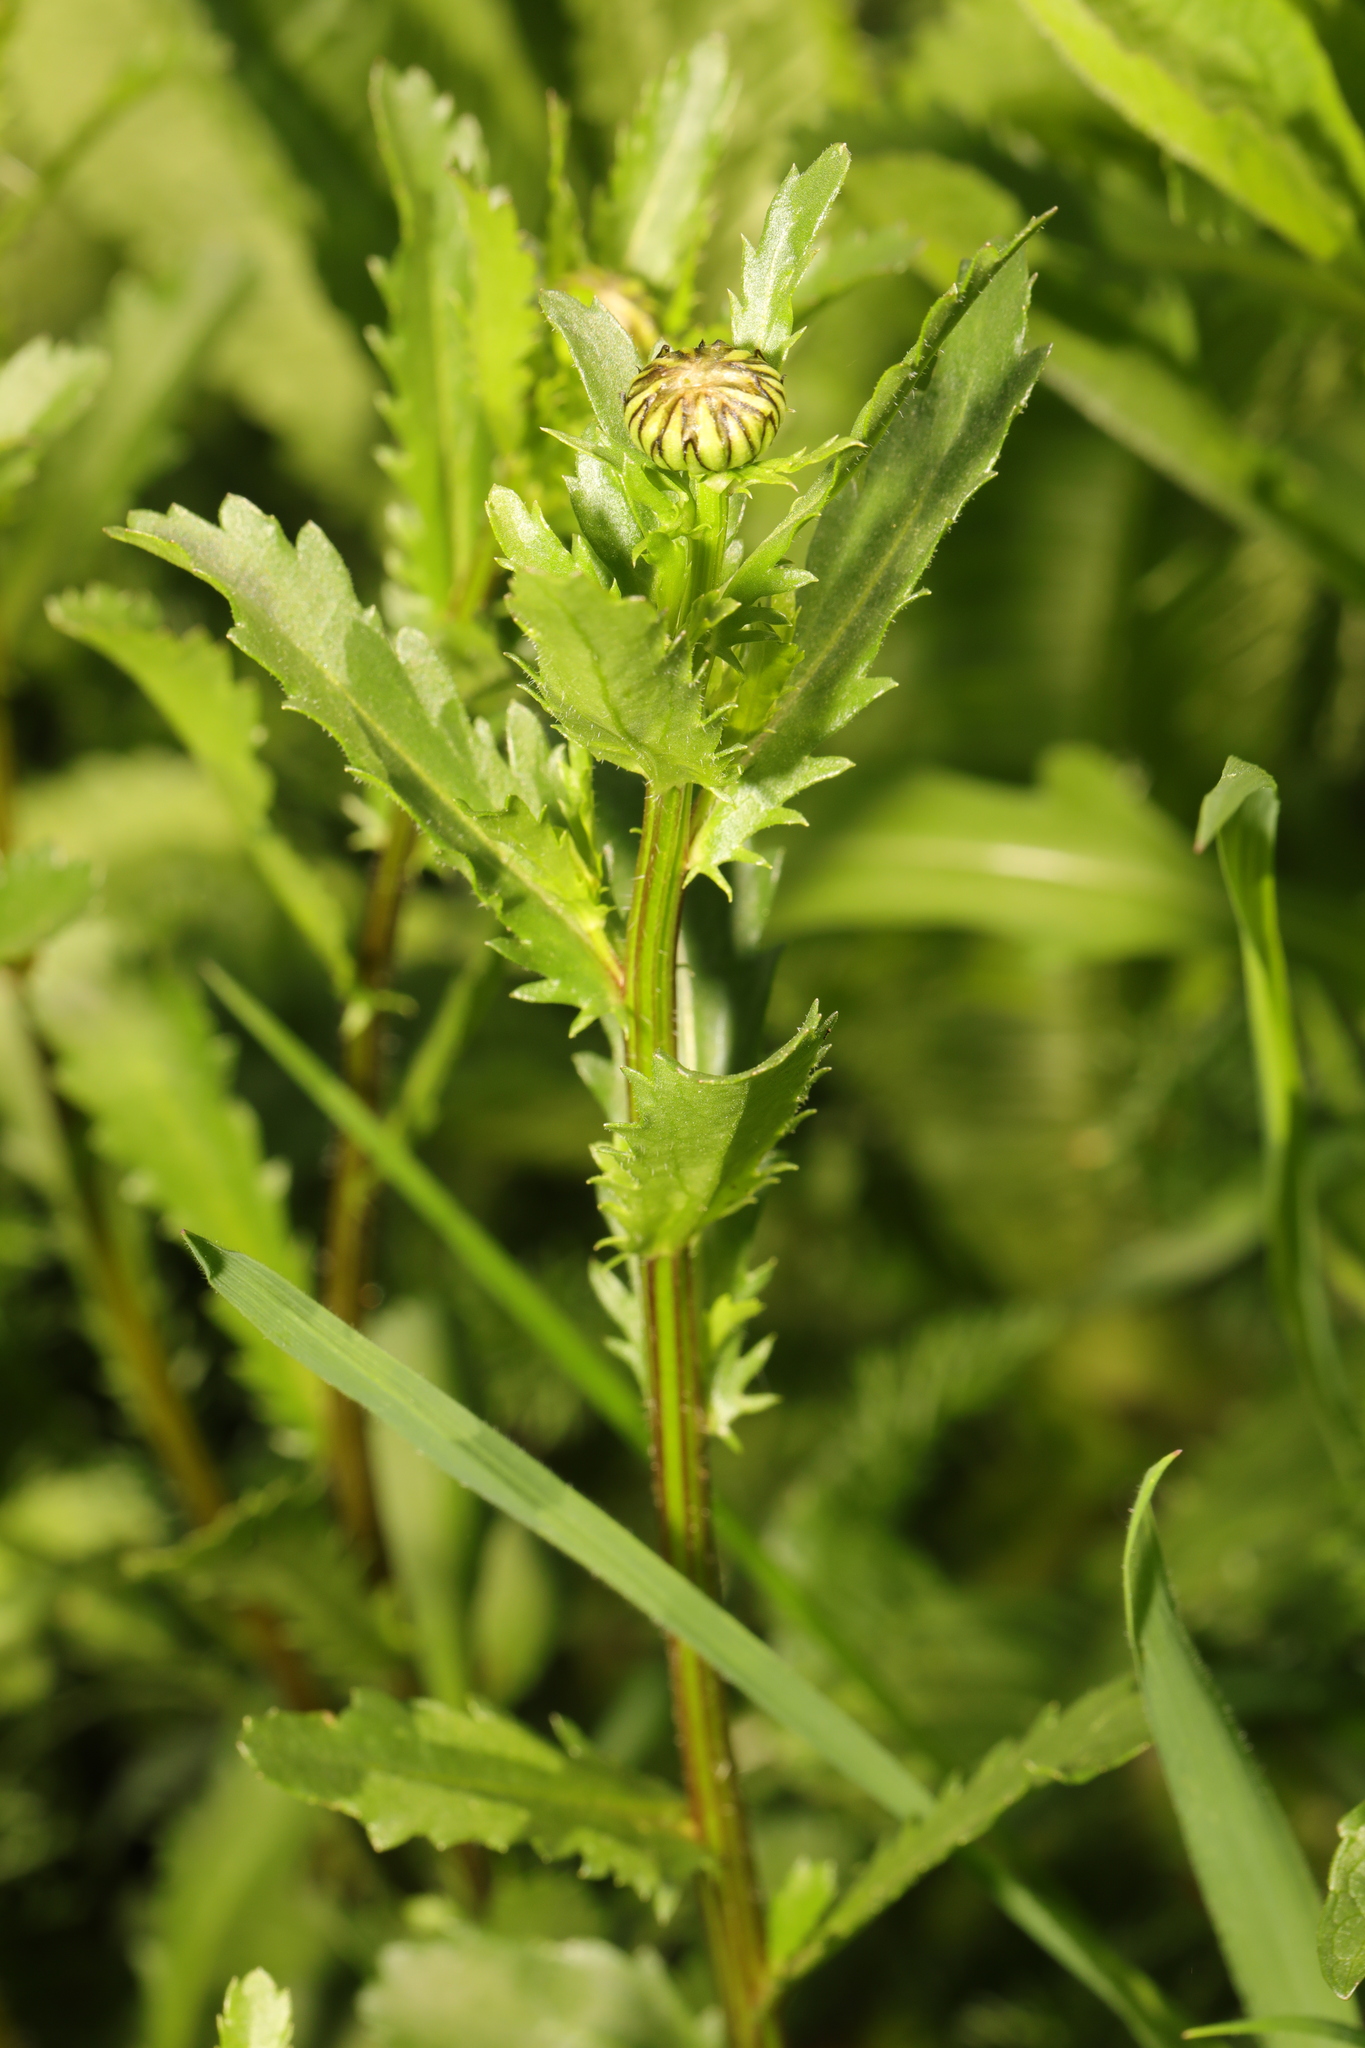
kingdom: Plantae
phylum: Tracheophyta
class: Magnoliopsida
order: Asterales
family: Asteraceae
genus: Leucanthemum
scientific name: Leucanthemum vulgare
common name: Oxeye daisy
